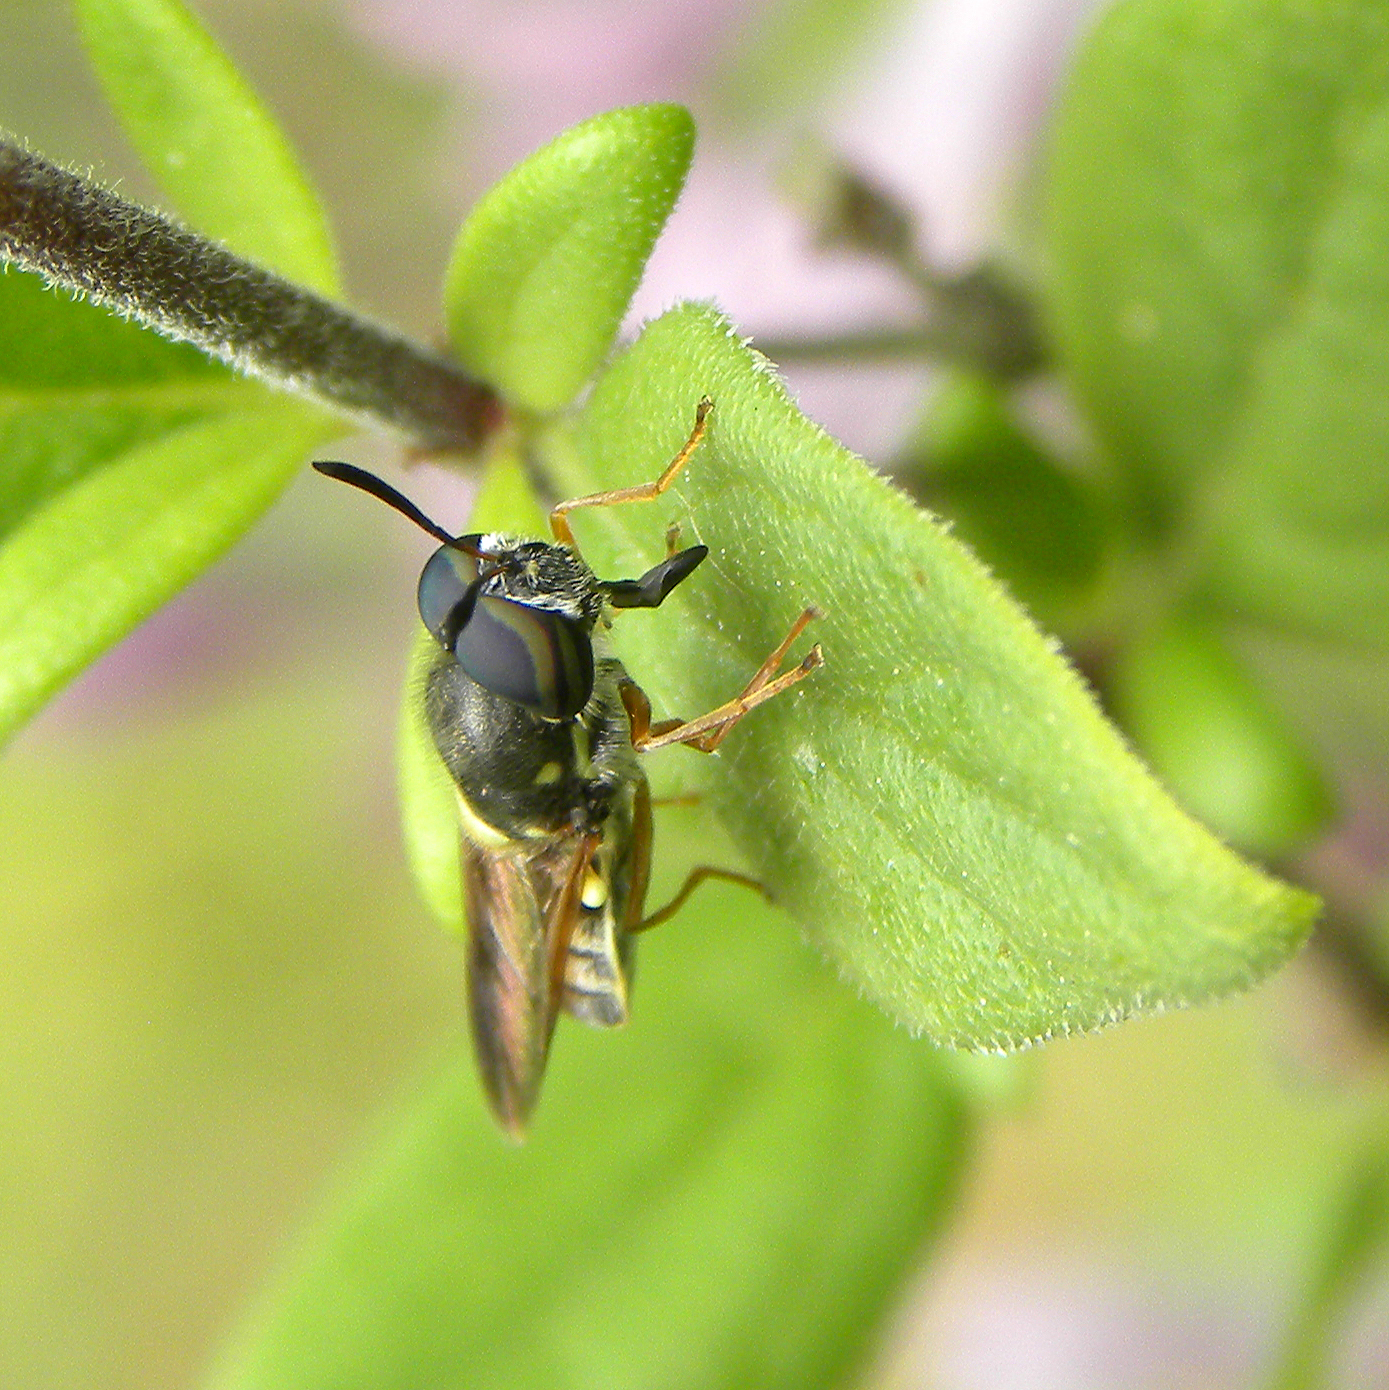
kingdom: Animalia
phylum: Arthropoda
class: Insecta
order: Diptera
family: Stratiomyidae
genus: Hoplitimyia
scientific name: Hoplitimyia constans
